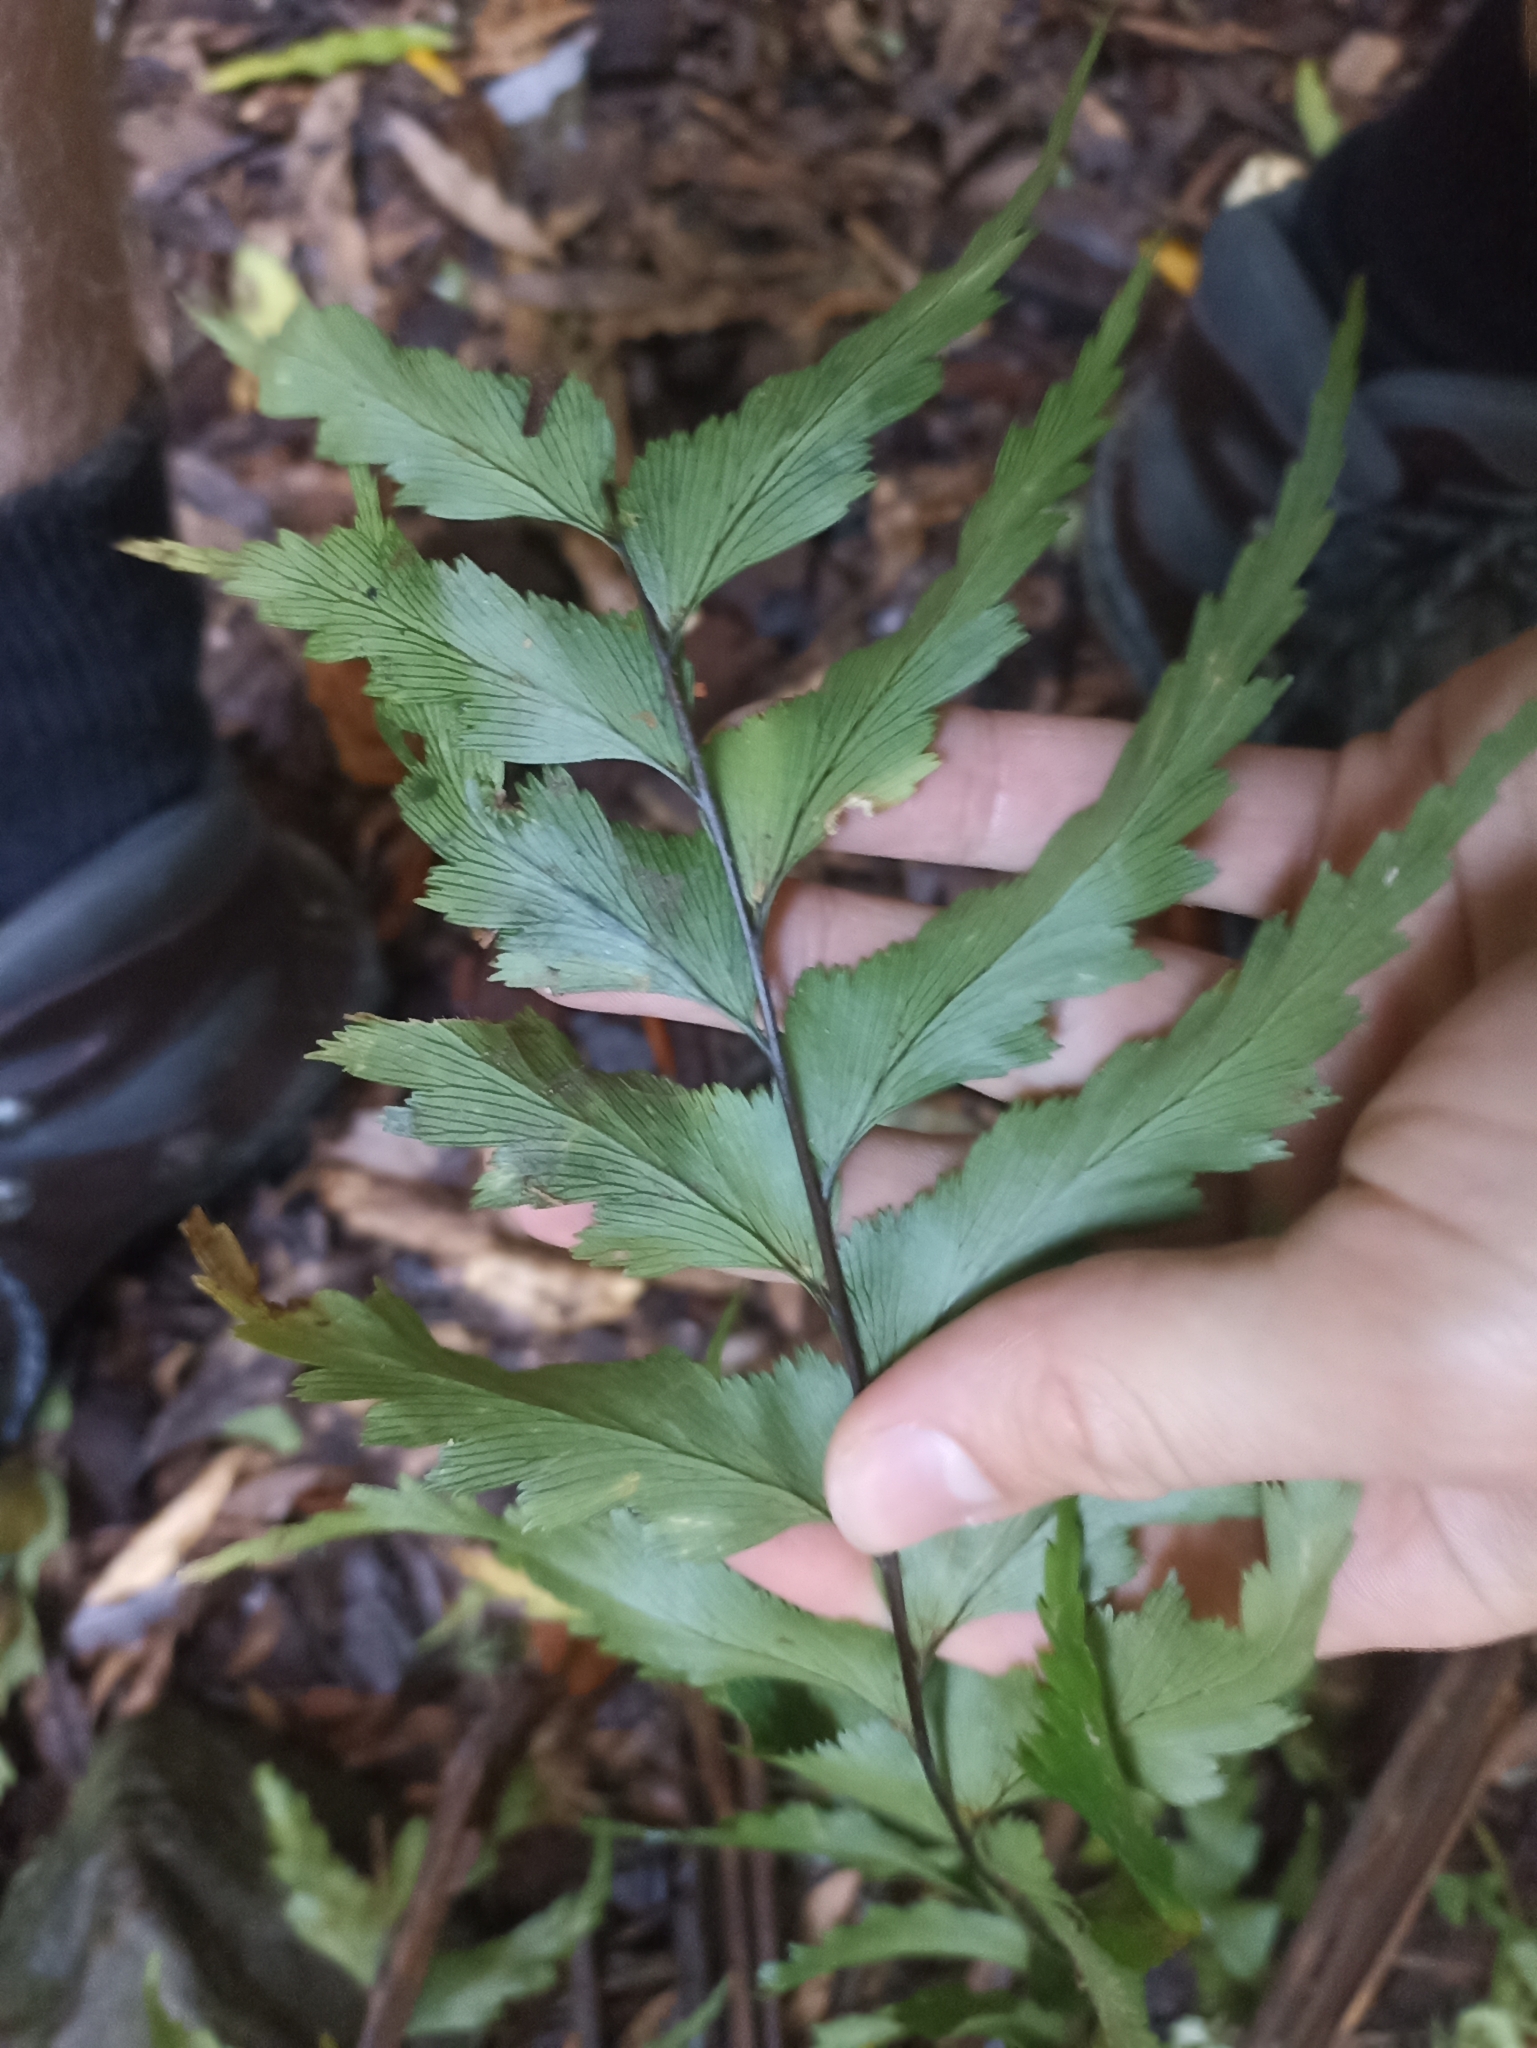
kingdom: Plantae
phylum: Tracheophyta
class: Polypodiopsida
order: Polypodiales
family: Aspleniaceae
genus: Asplenium
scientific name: Asplenium polyodon
